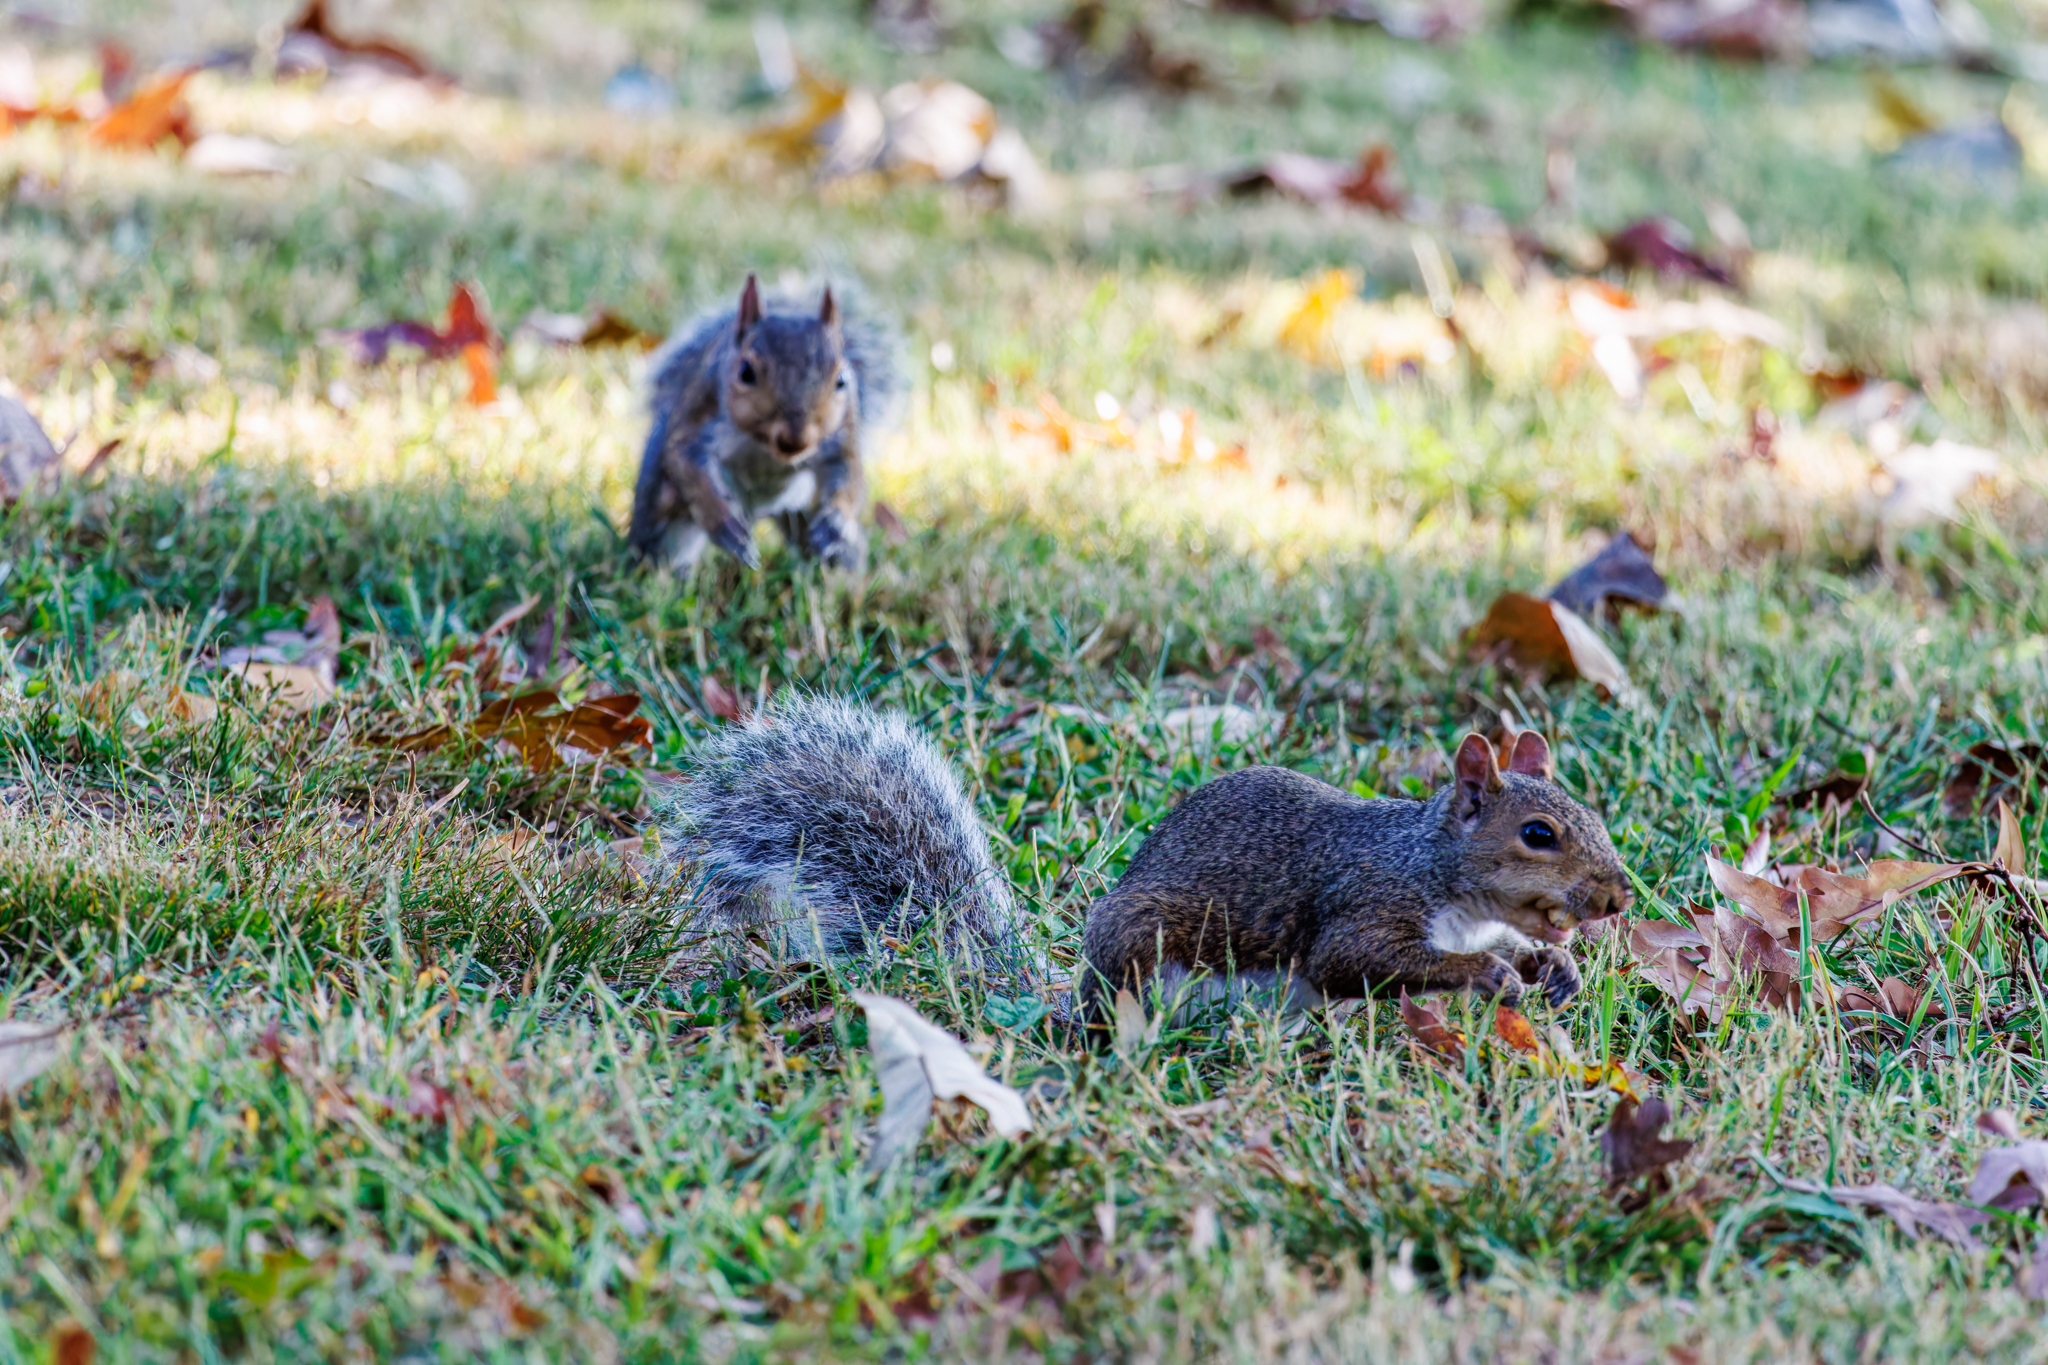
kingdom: Animalia
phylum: Chordata
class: Mammalia
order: Rodentia
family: Sciuridae
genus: Sciurus
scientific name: Sciurus carolinensis
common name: Eastern gray squirrel
